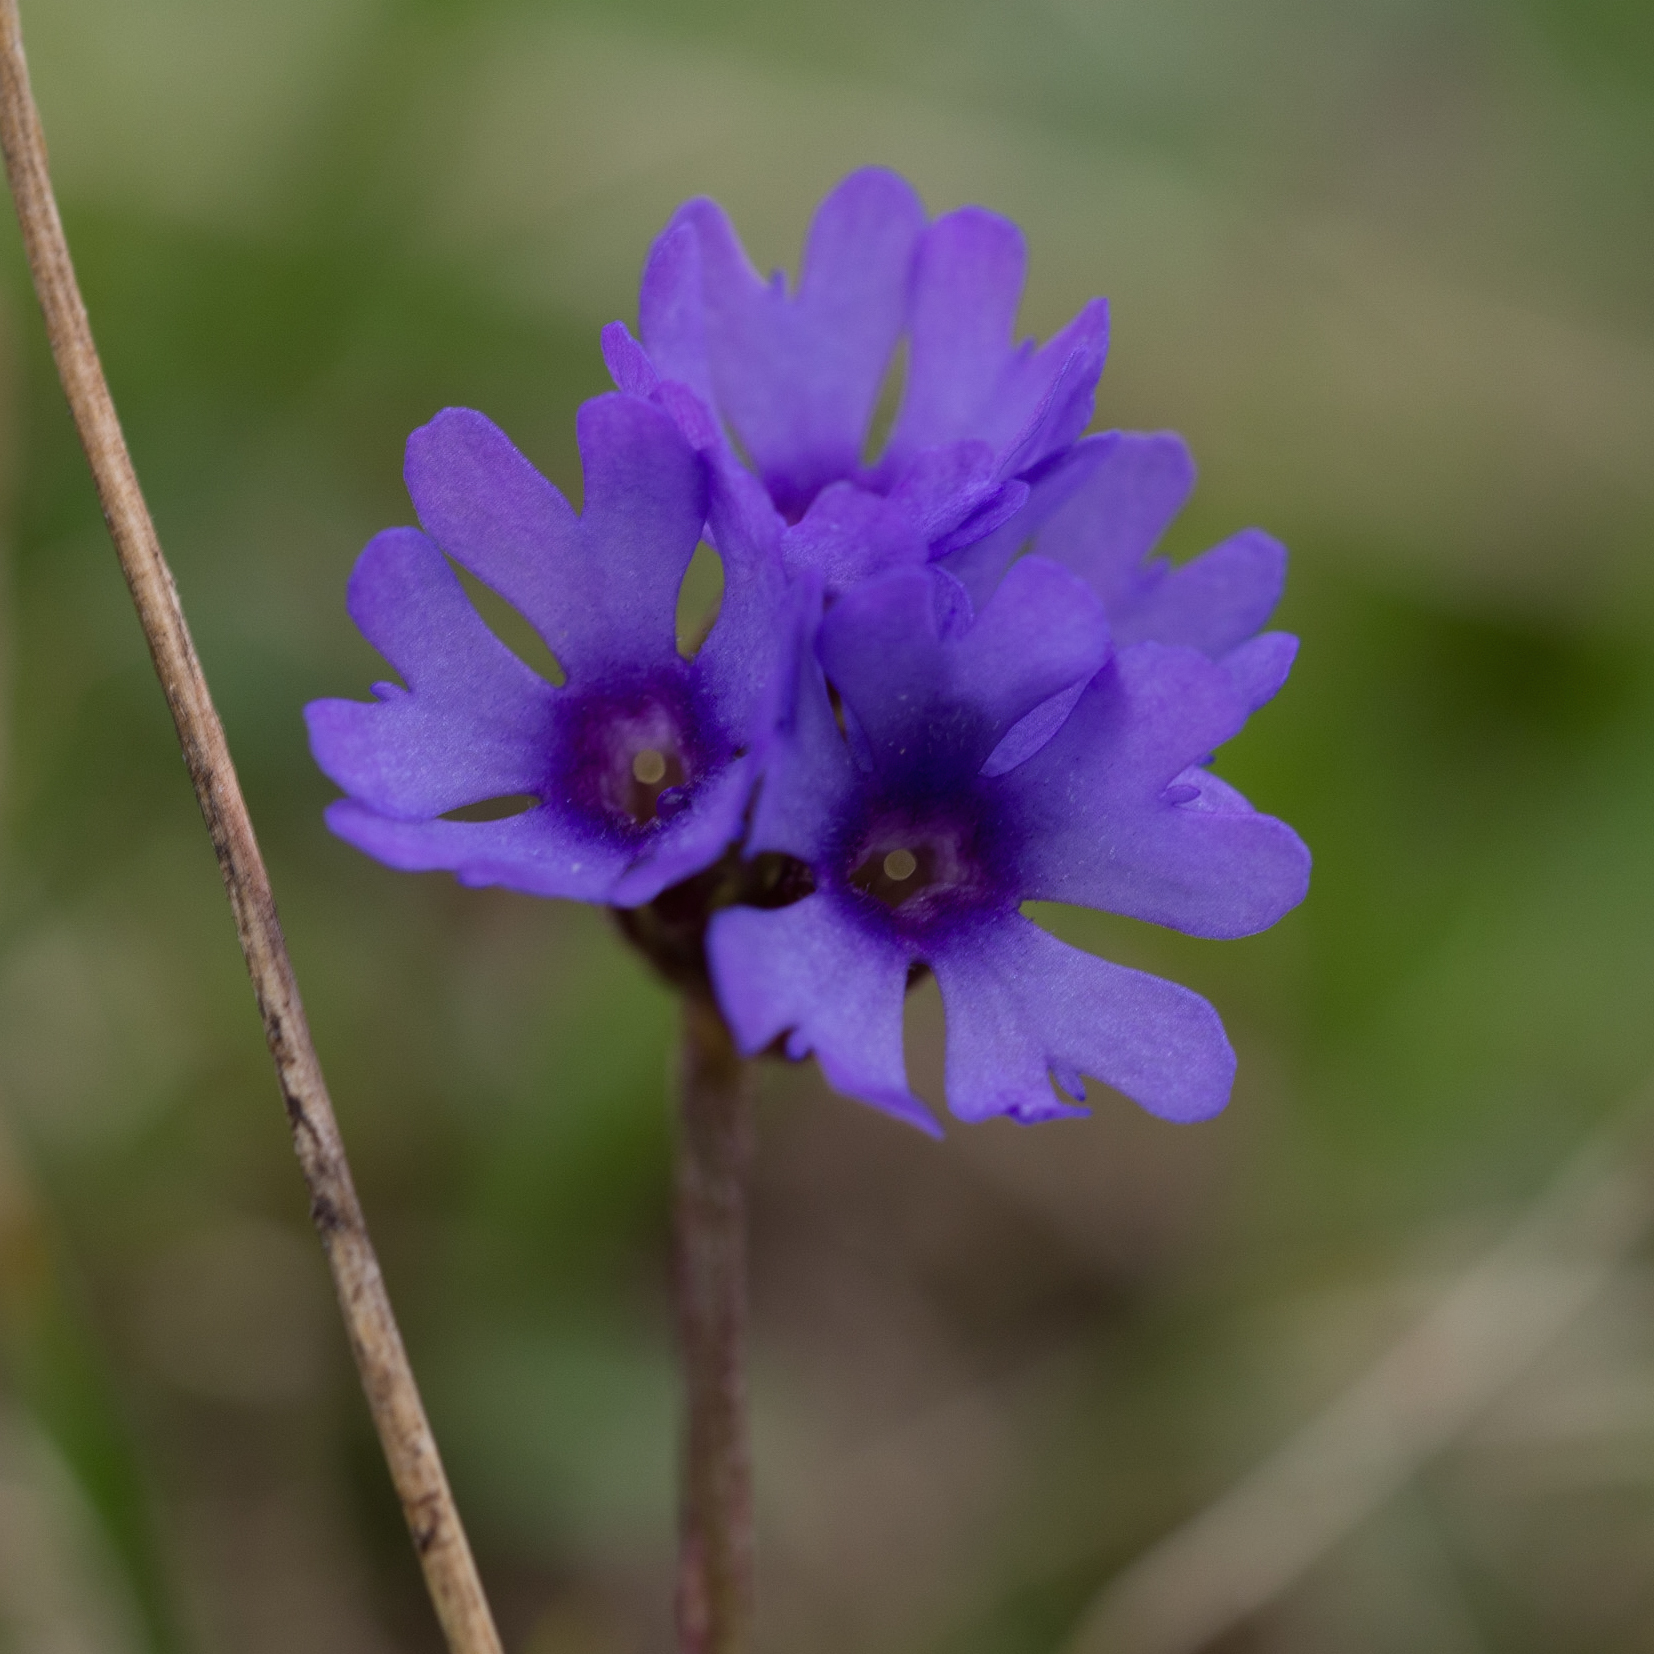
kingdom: Plantae
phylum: Tracheophyta
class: Magnoliopsida
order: Ericales
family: Primulaceae
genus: Primula
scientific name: Primula glutinosa
